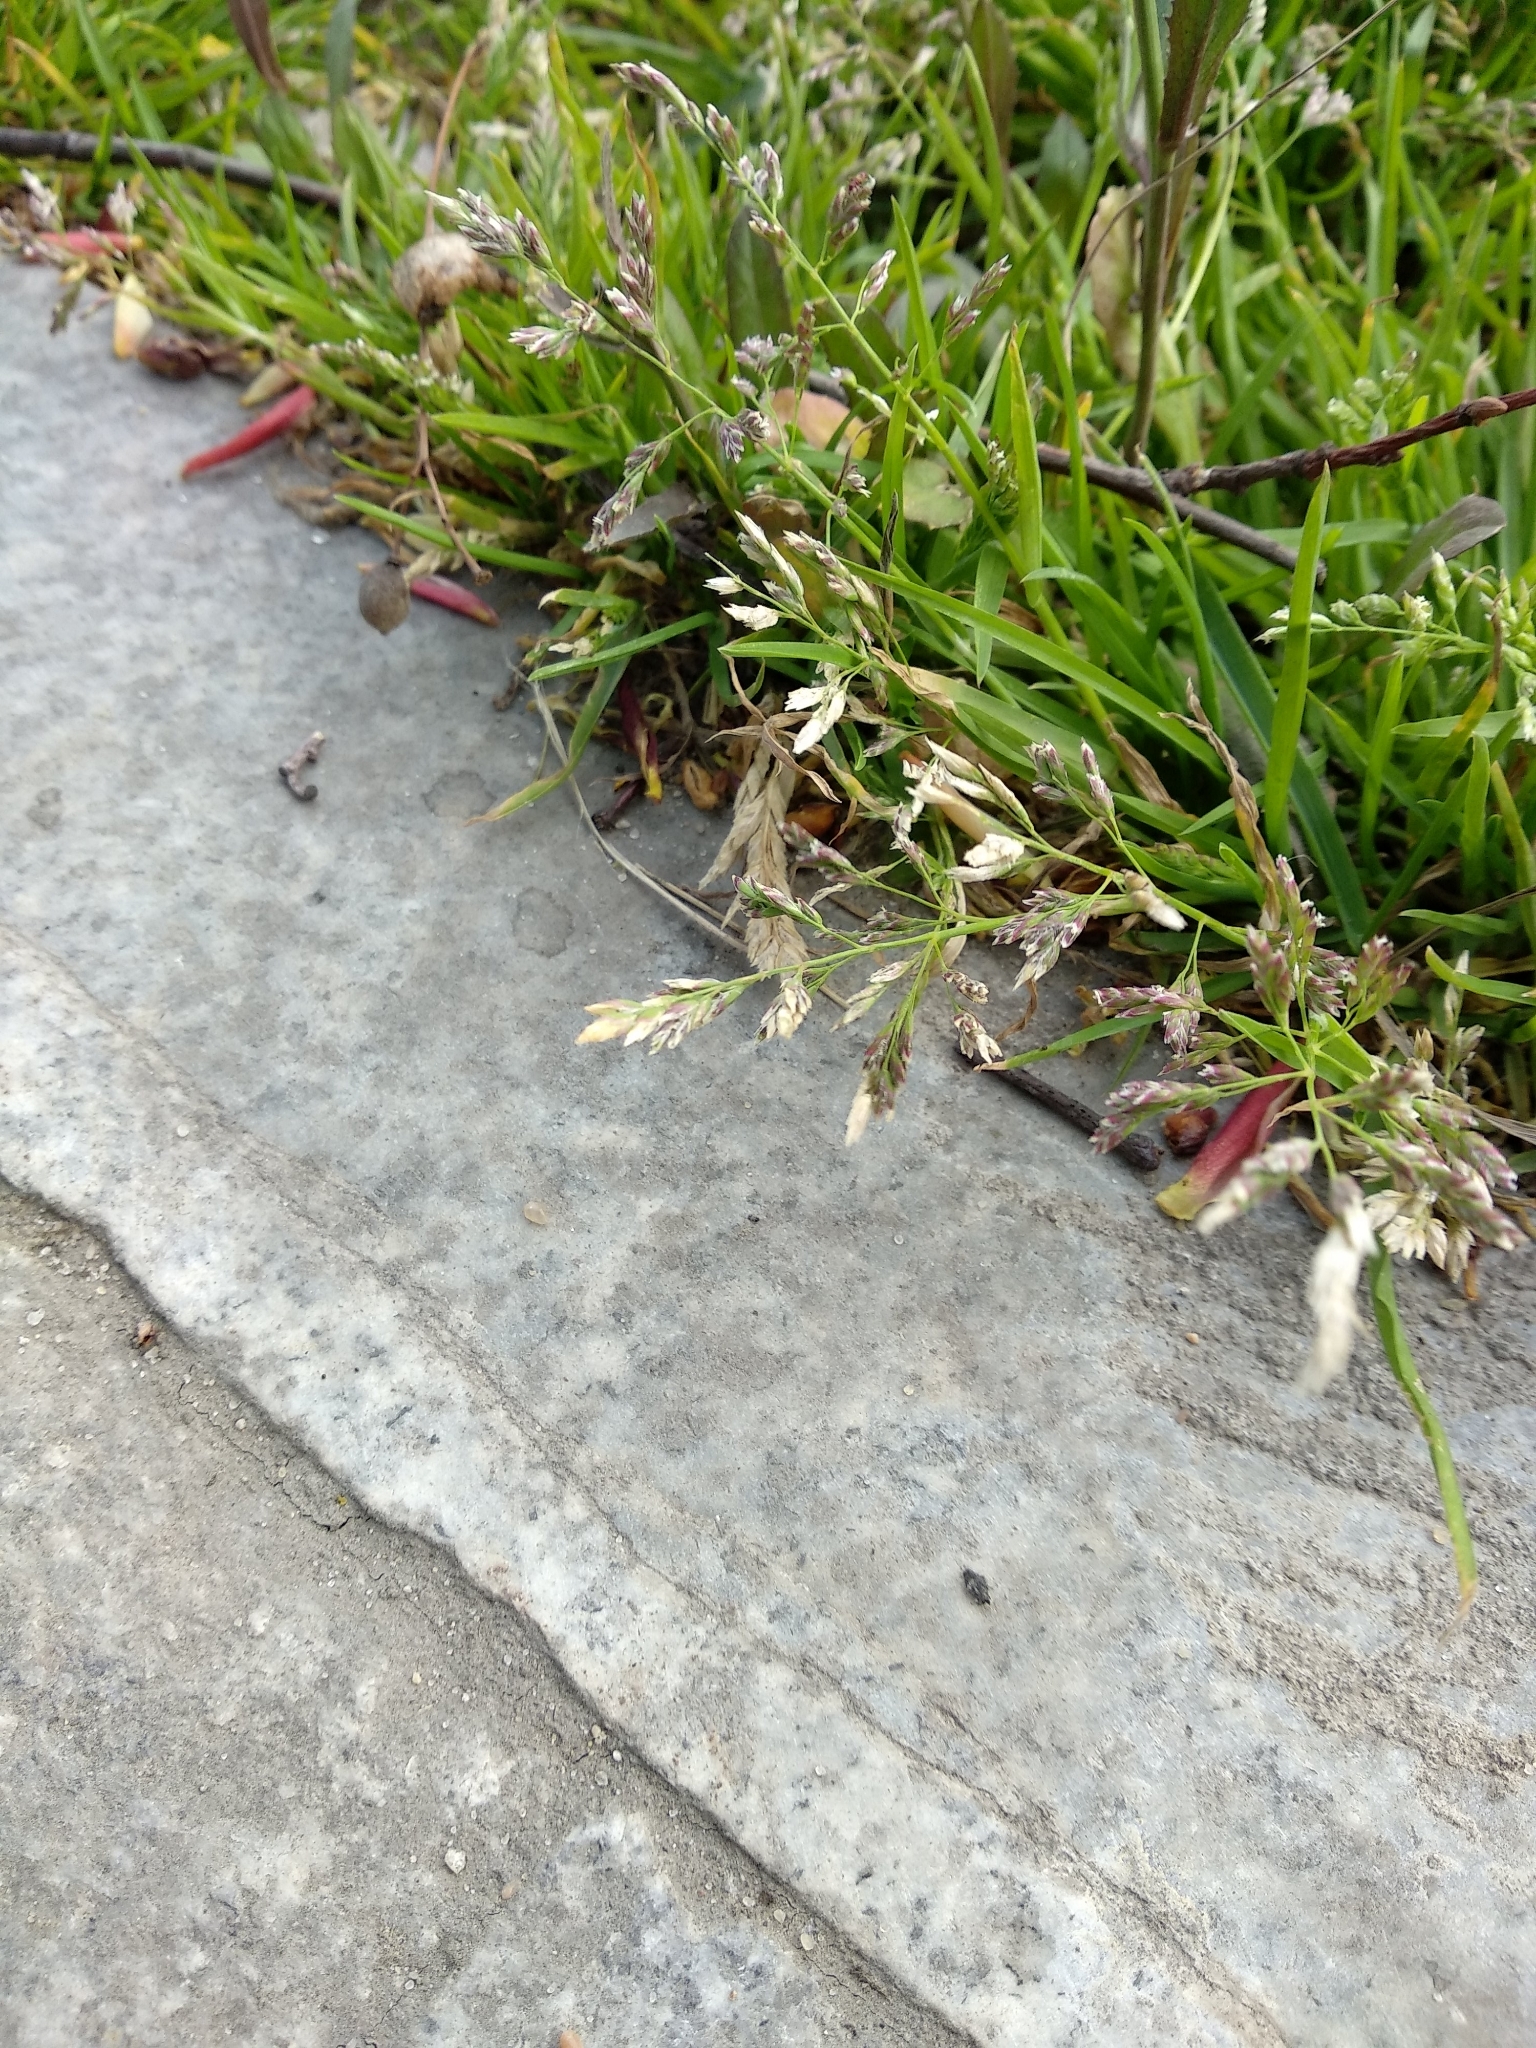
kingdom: Plantae
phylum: Tracheophyta
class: Liliopsida
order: Poales
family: Poaceae
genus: Poa
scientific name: Poa annua
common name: Annual bluegrass
